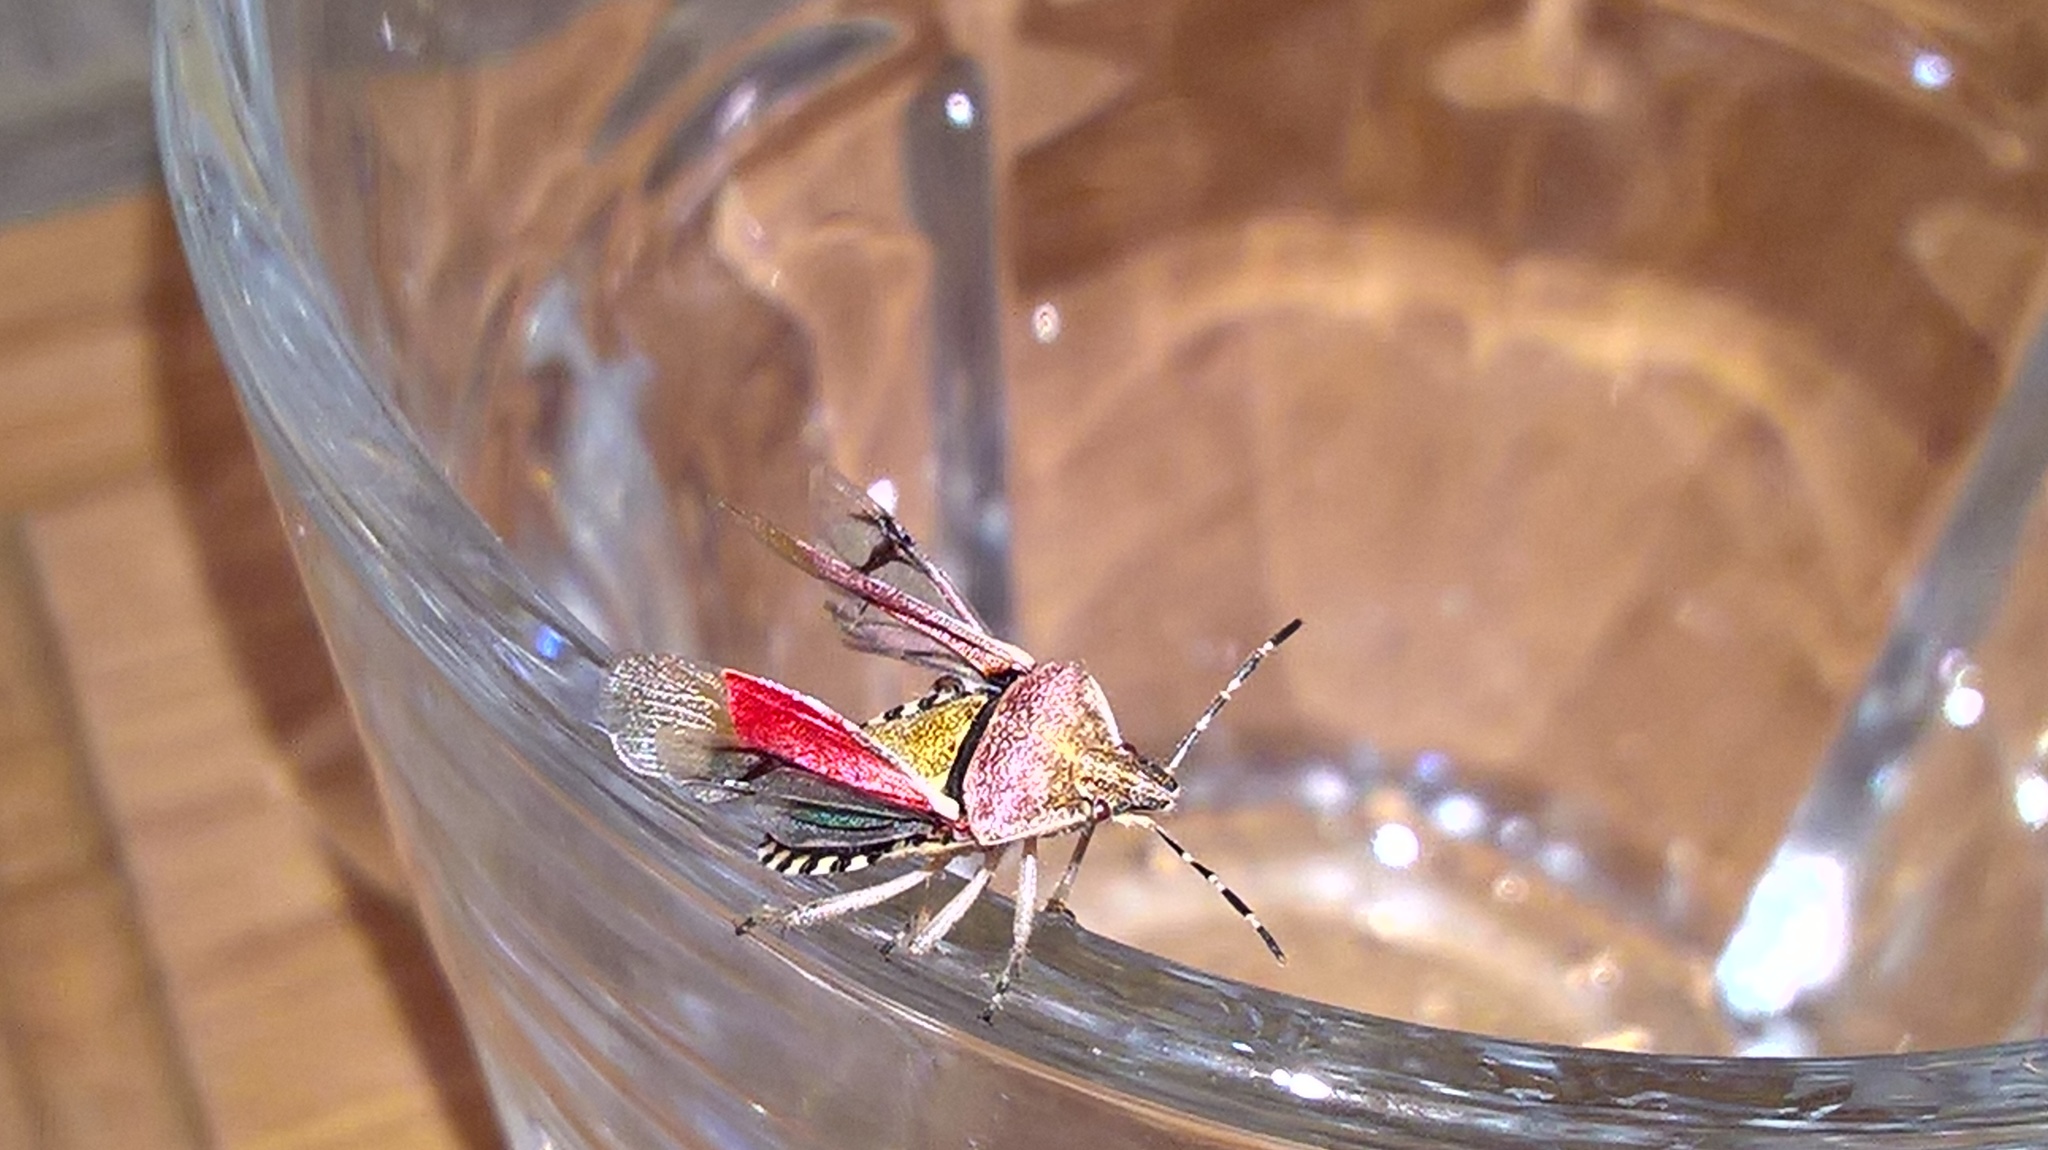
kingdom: Animalia
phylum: Arthropoda
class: Insecta
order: Hemiptera
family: Pentatomidae
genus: Dolycoris
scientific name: Dolycoris baccarum
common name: Sloe bug
